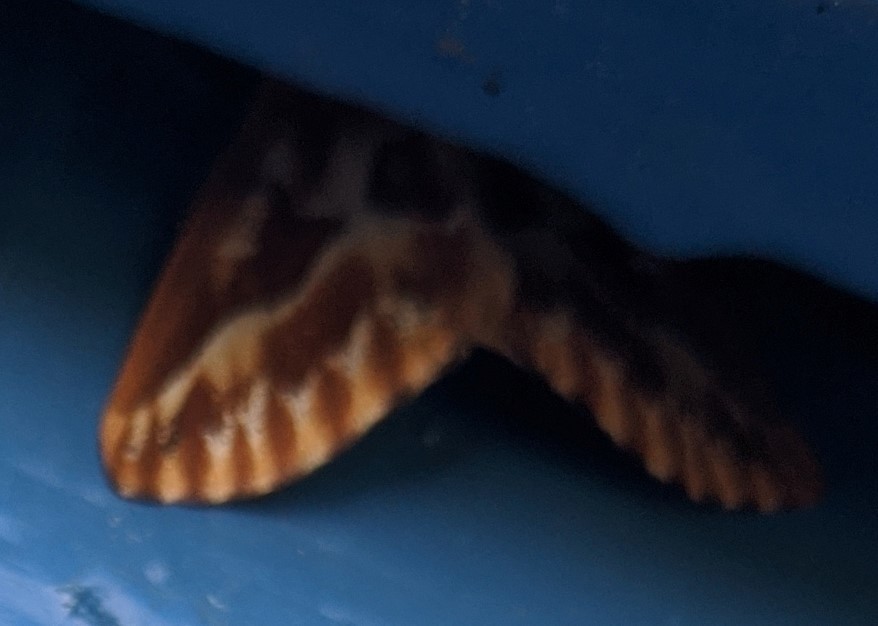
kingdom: Animalia
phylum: Arthropoda
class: Insecta
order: Lepidoptera
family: Geometridae
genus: Caripeta
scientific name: Caripeta piniata
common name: Northern pine looper moth
